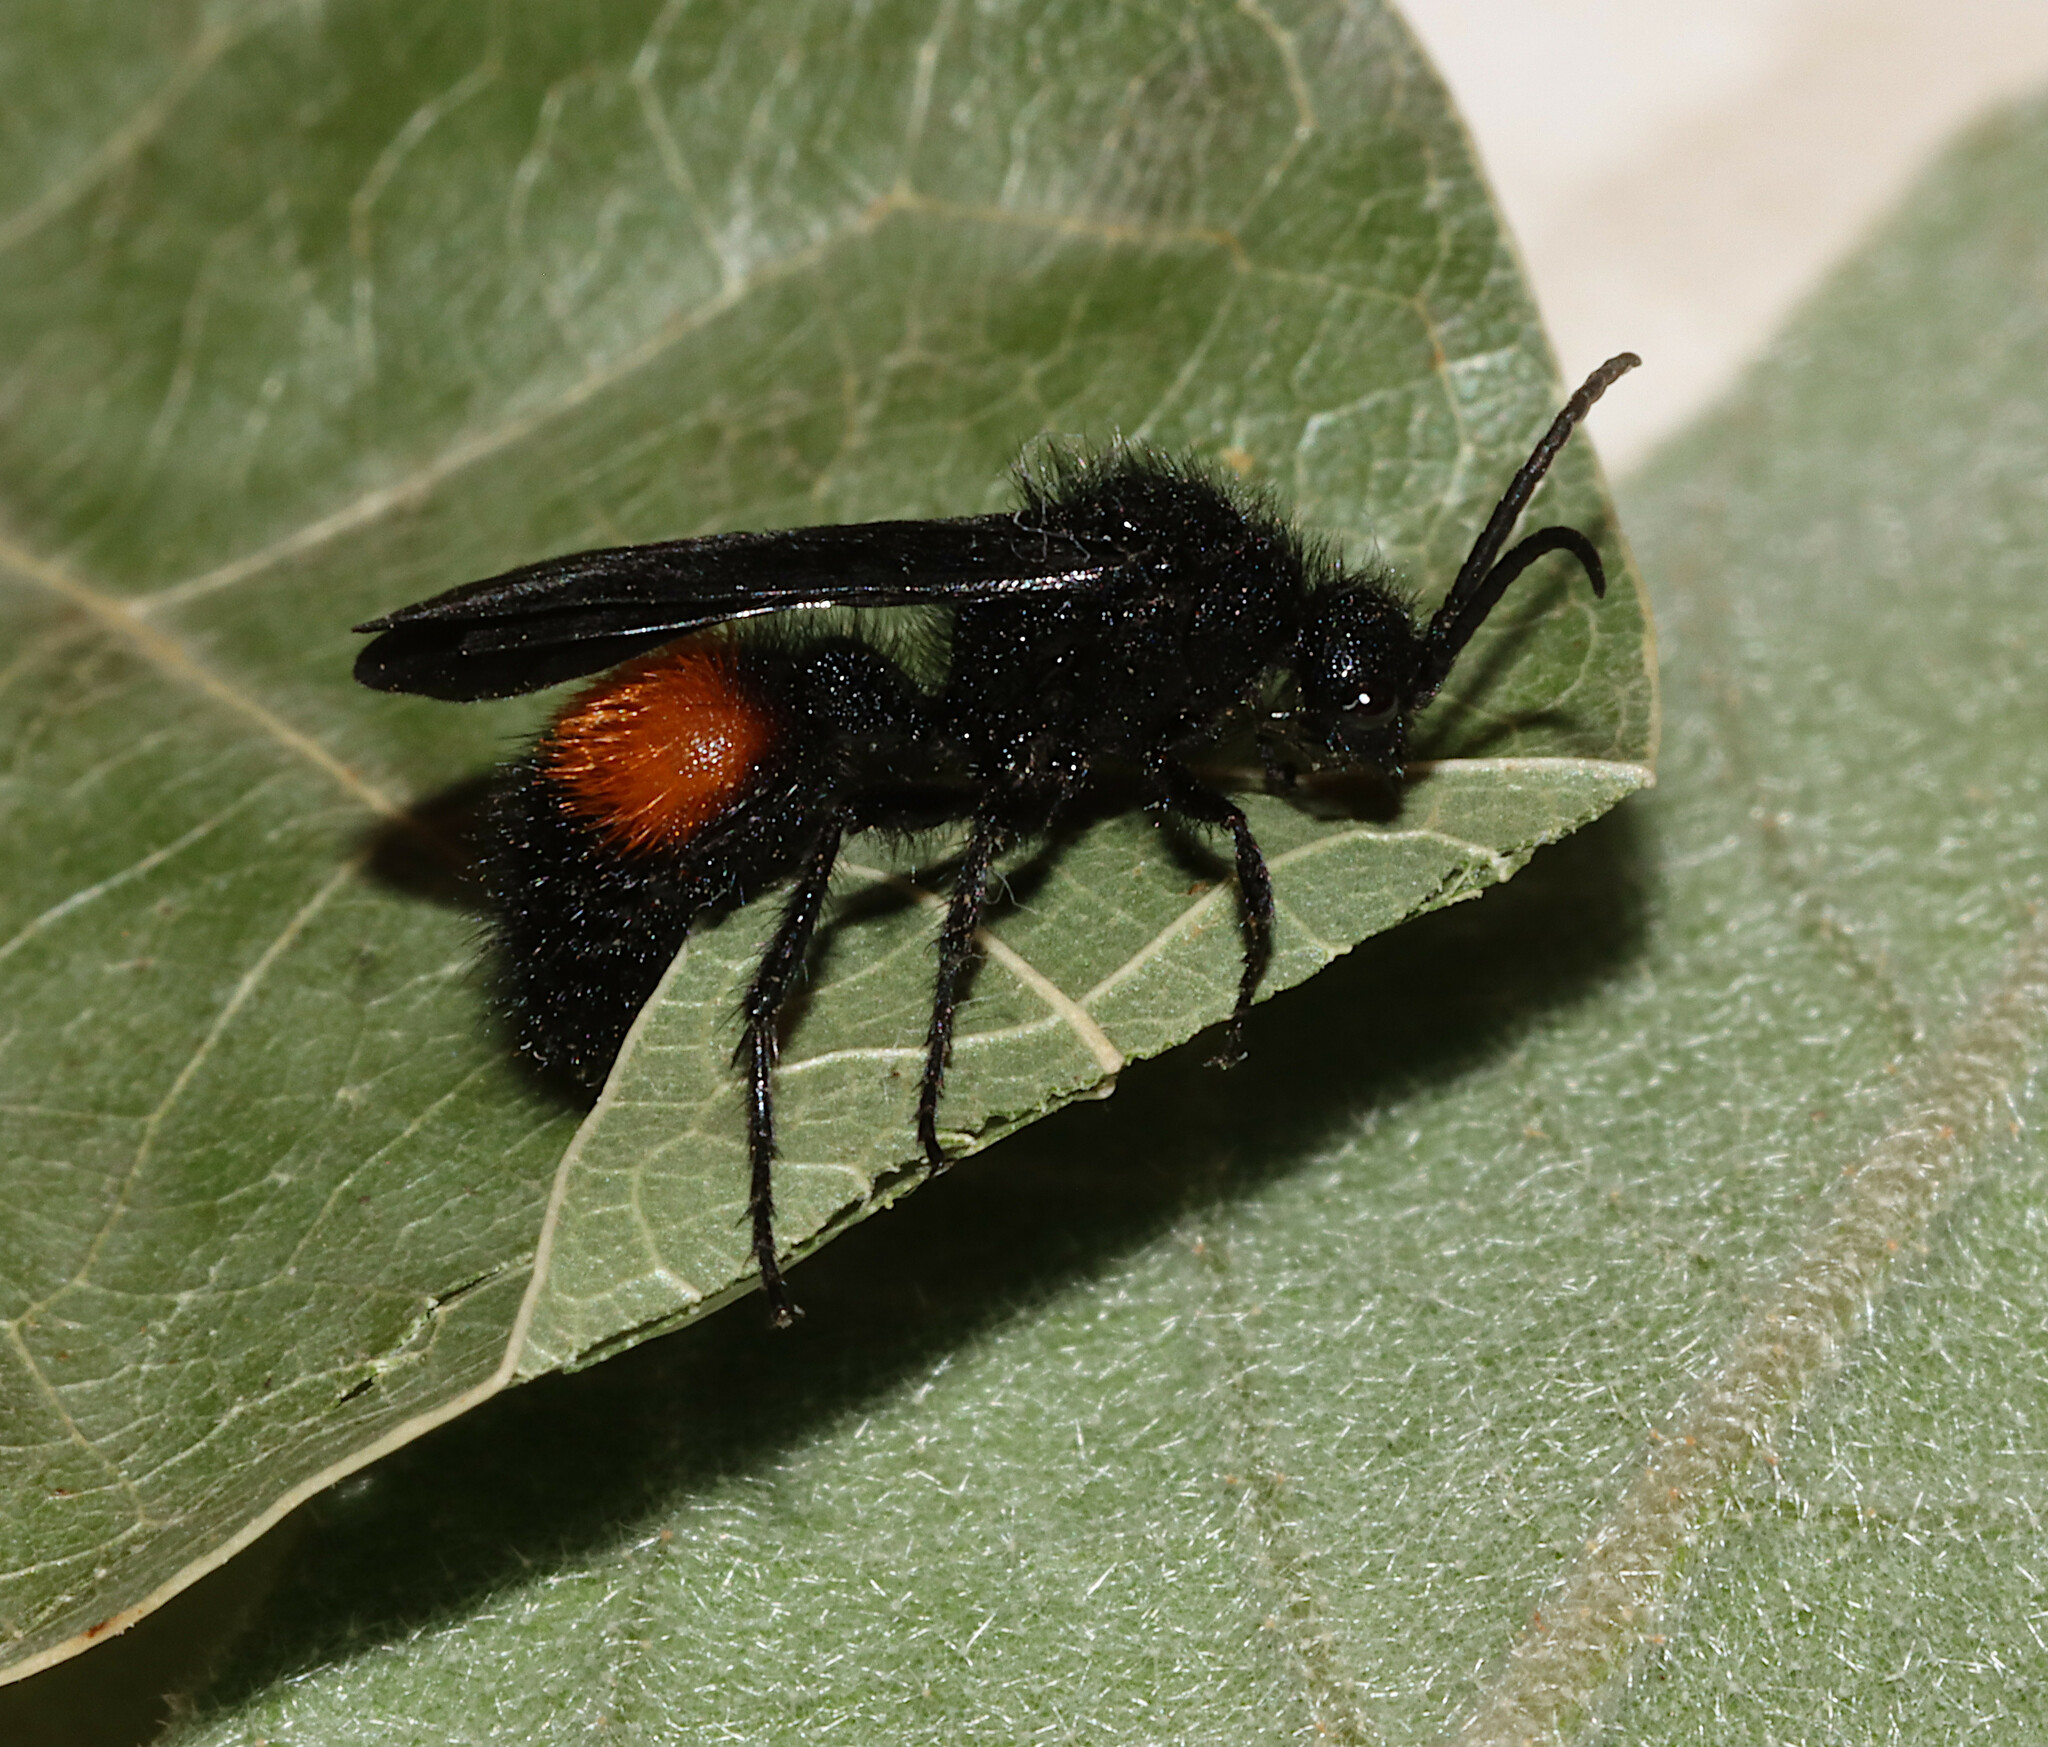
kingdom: Animalia
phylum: Arthropoda
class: Insecta
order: Hymenoptera
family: Mutillidae
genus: Dasymutilla
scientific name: Dasymutilla
